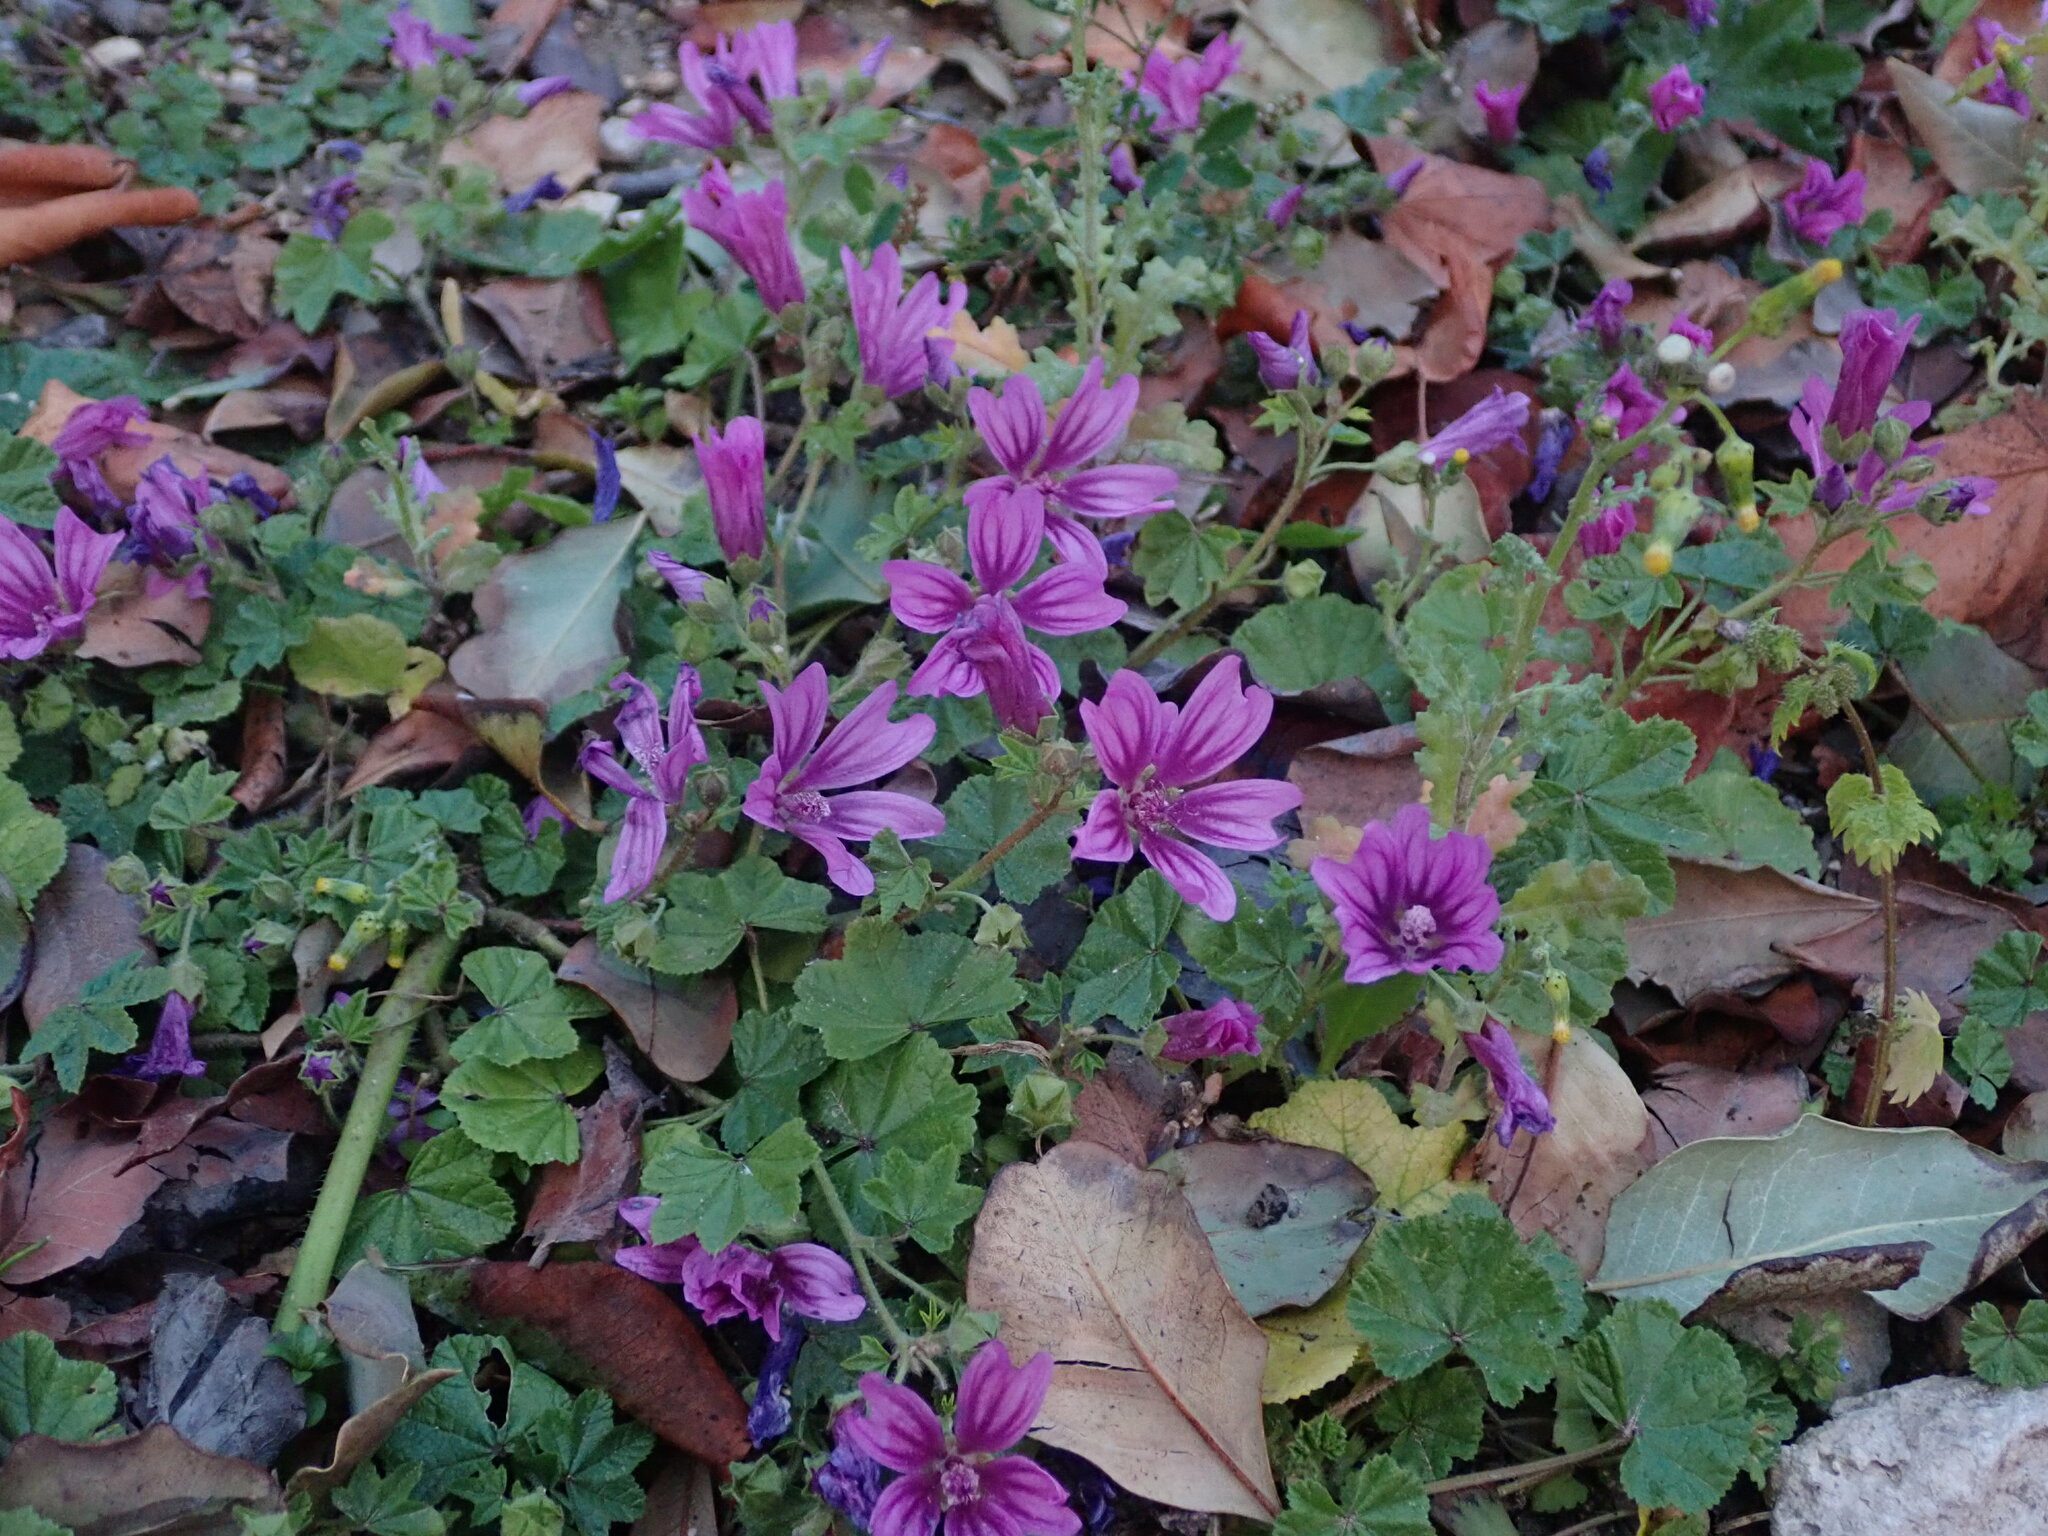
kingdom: Plantae
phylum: Tracheophyta
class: Magnoliopsida
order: Malvales
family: Malvaceae
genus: Malva
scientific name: Malva sylvestris
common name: Common mallow
